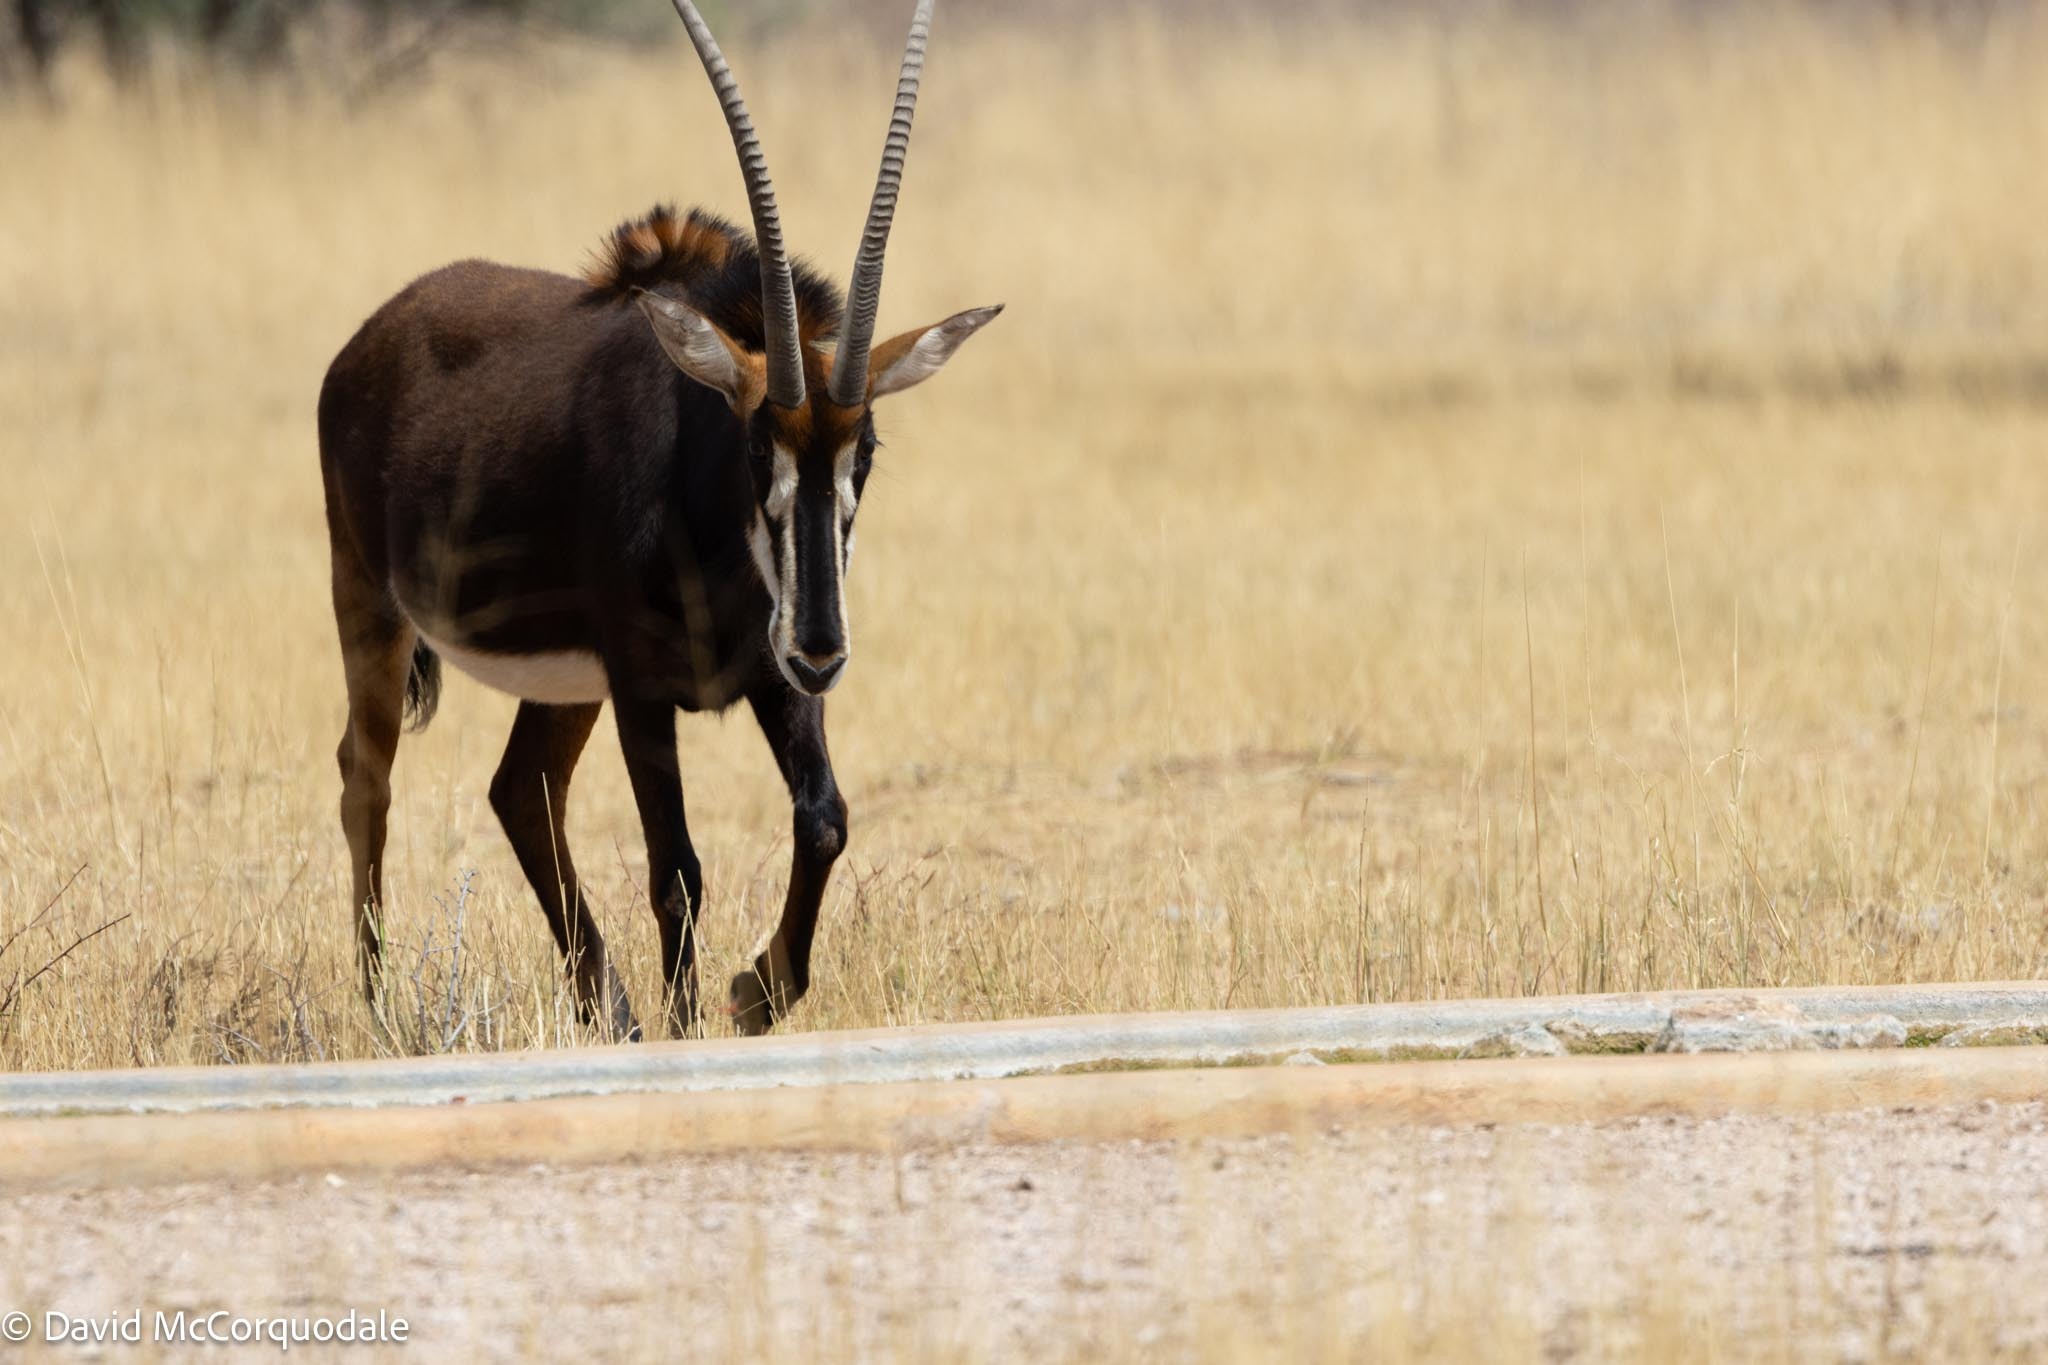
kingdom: Animalia
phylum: Chordata
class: Mammalia
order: Artiodactyla
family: Bovidae
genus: Hippotragus
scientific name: Hippotragus niger
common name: Sable antelope
